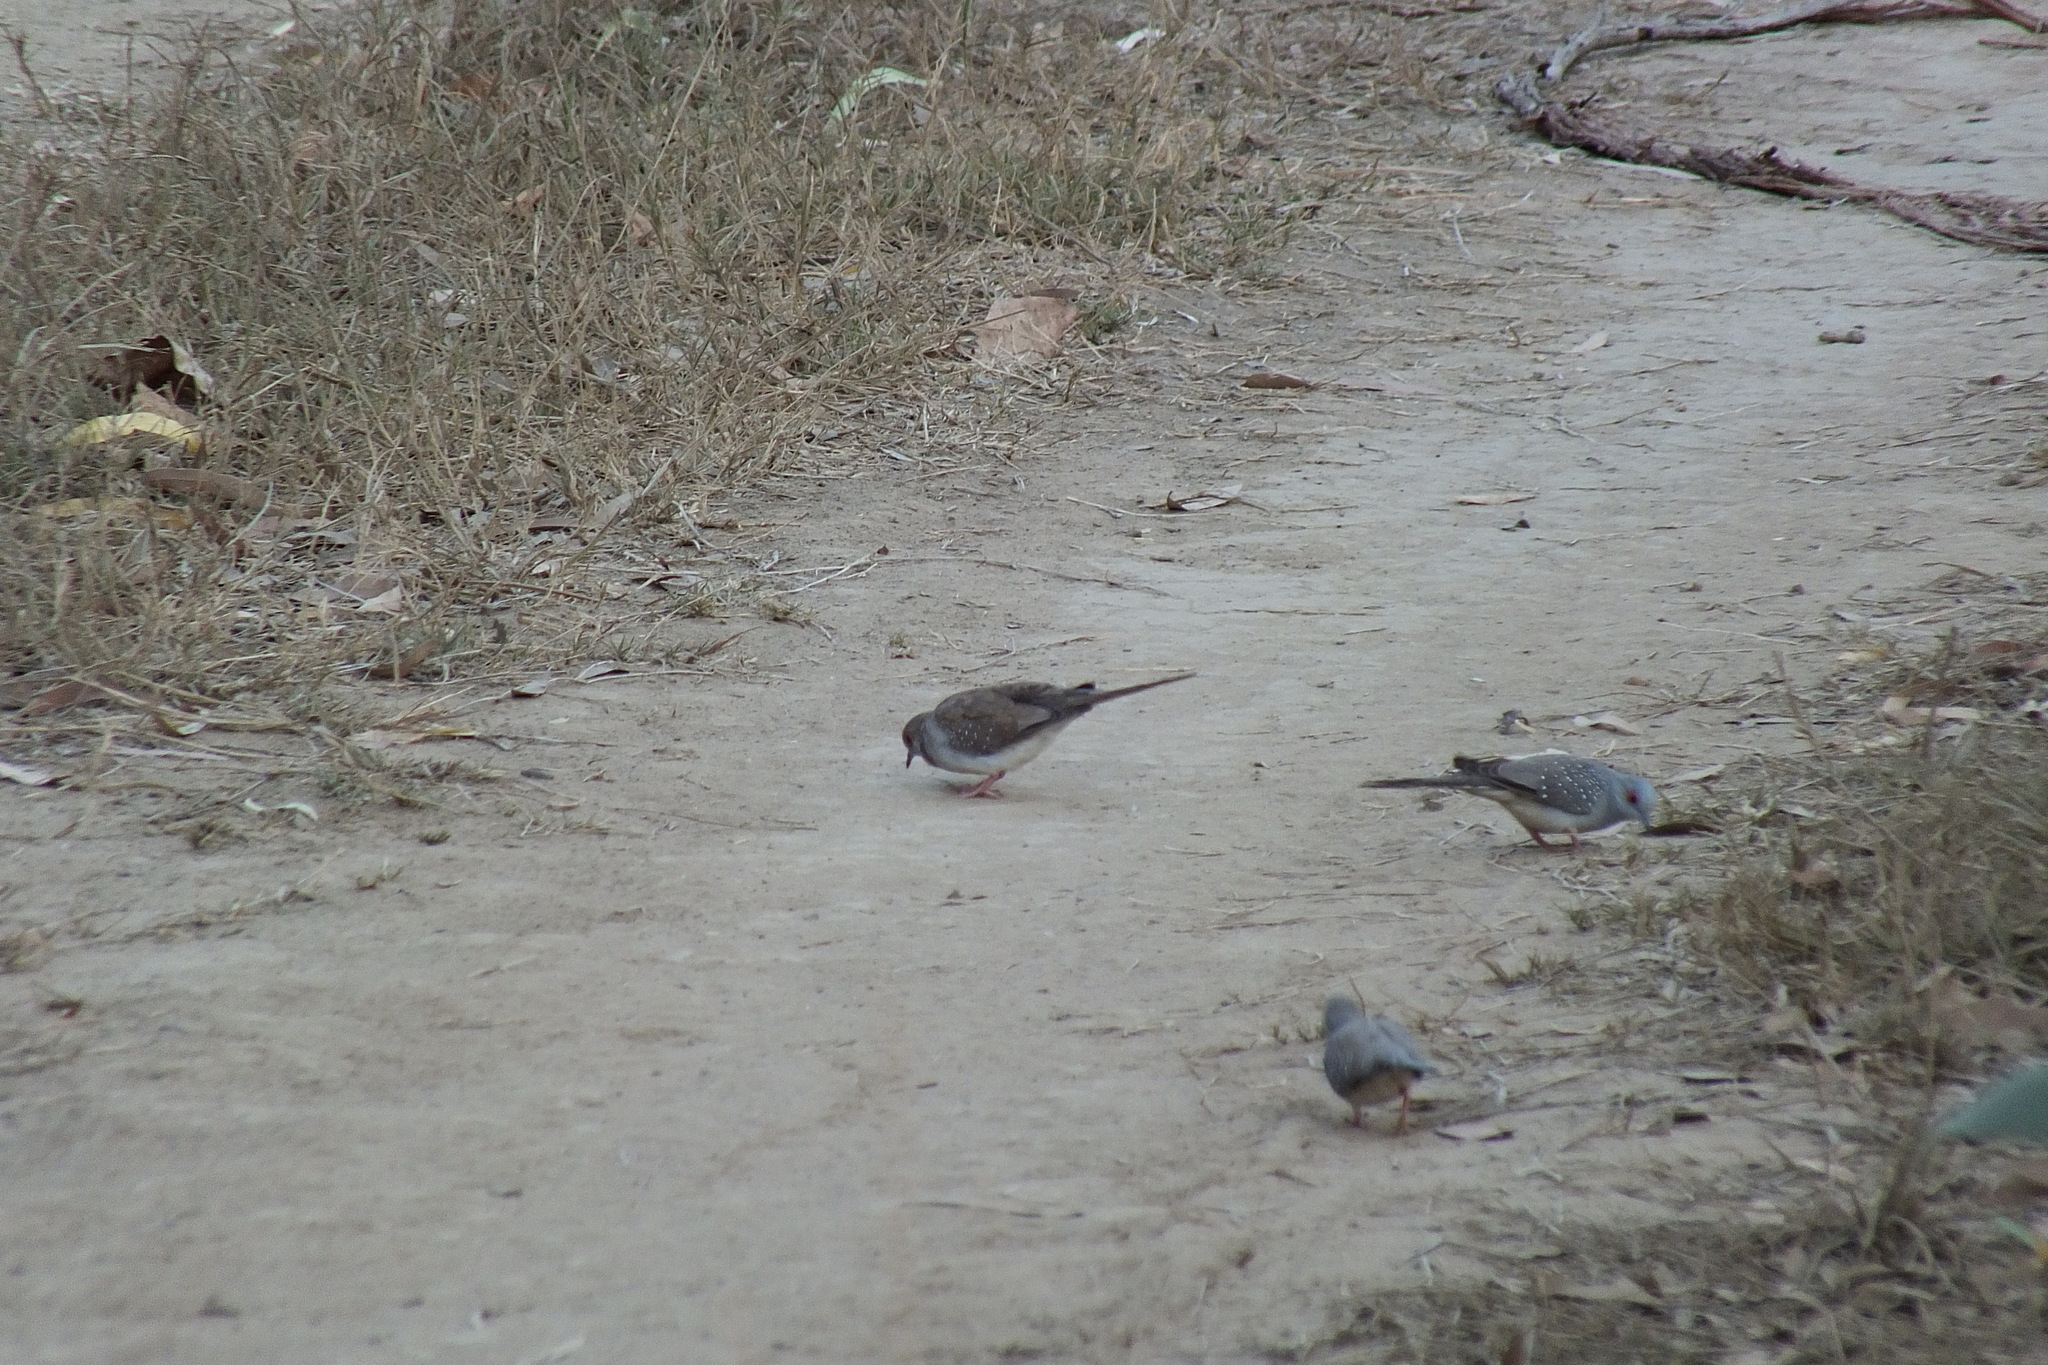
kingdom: Animalia
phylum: Chordata
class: Aves
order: Columbiformes
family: Columbidae
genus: Geopelia
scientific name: Geopelia cuneata
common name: Diamond dove
